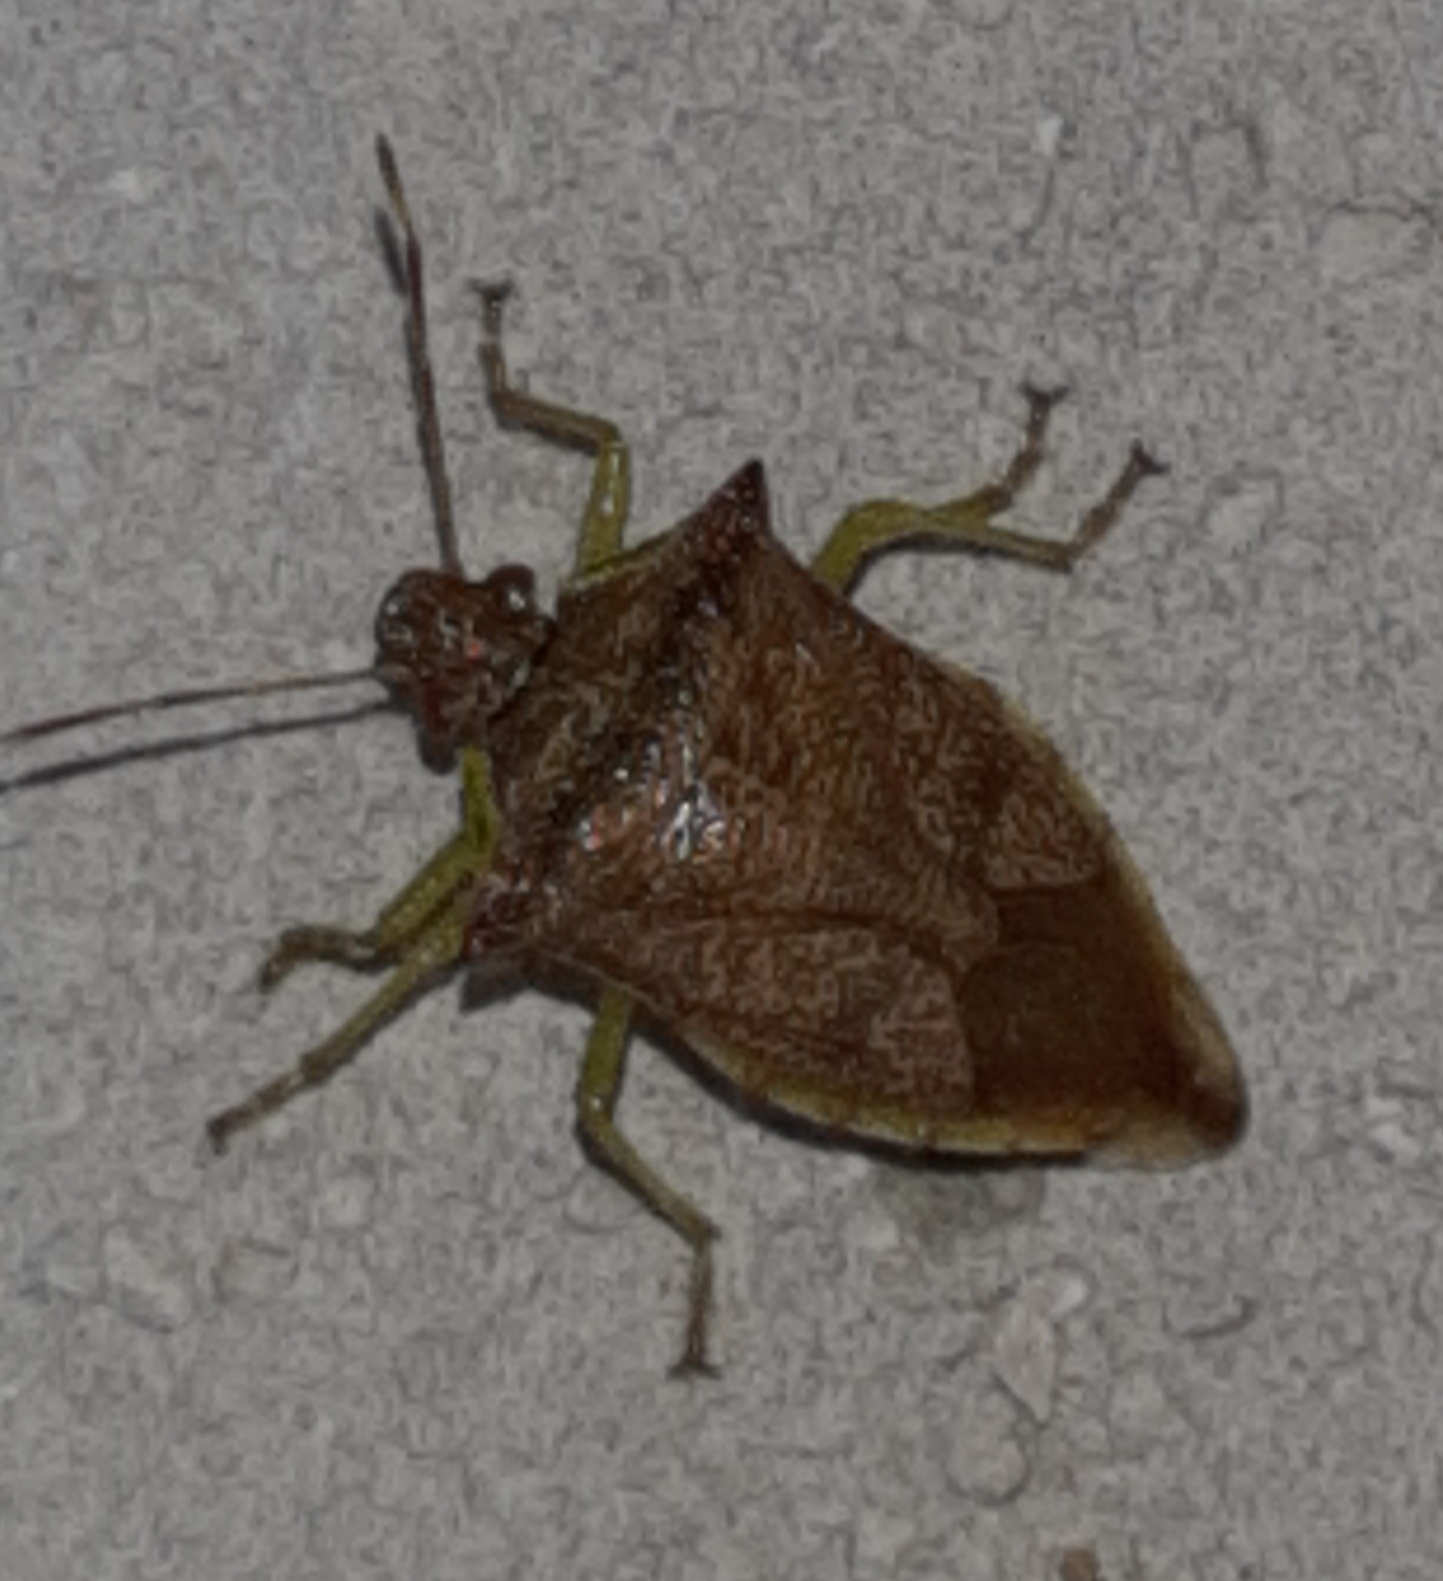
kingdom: Animalia
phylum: Arthropoda
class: Insecta
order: Hemiptera
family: Pentatomidae
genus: Podisus
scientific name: Podisus
